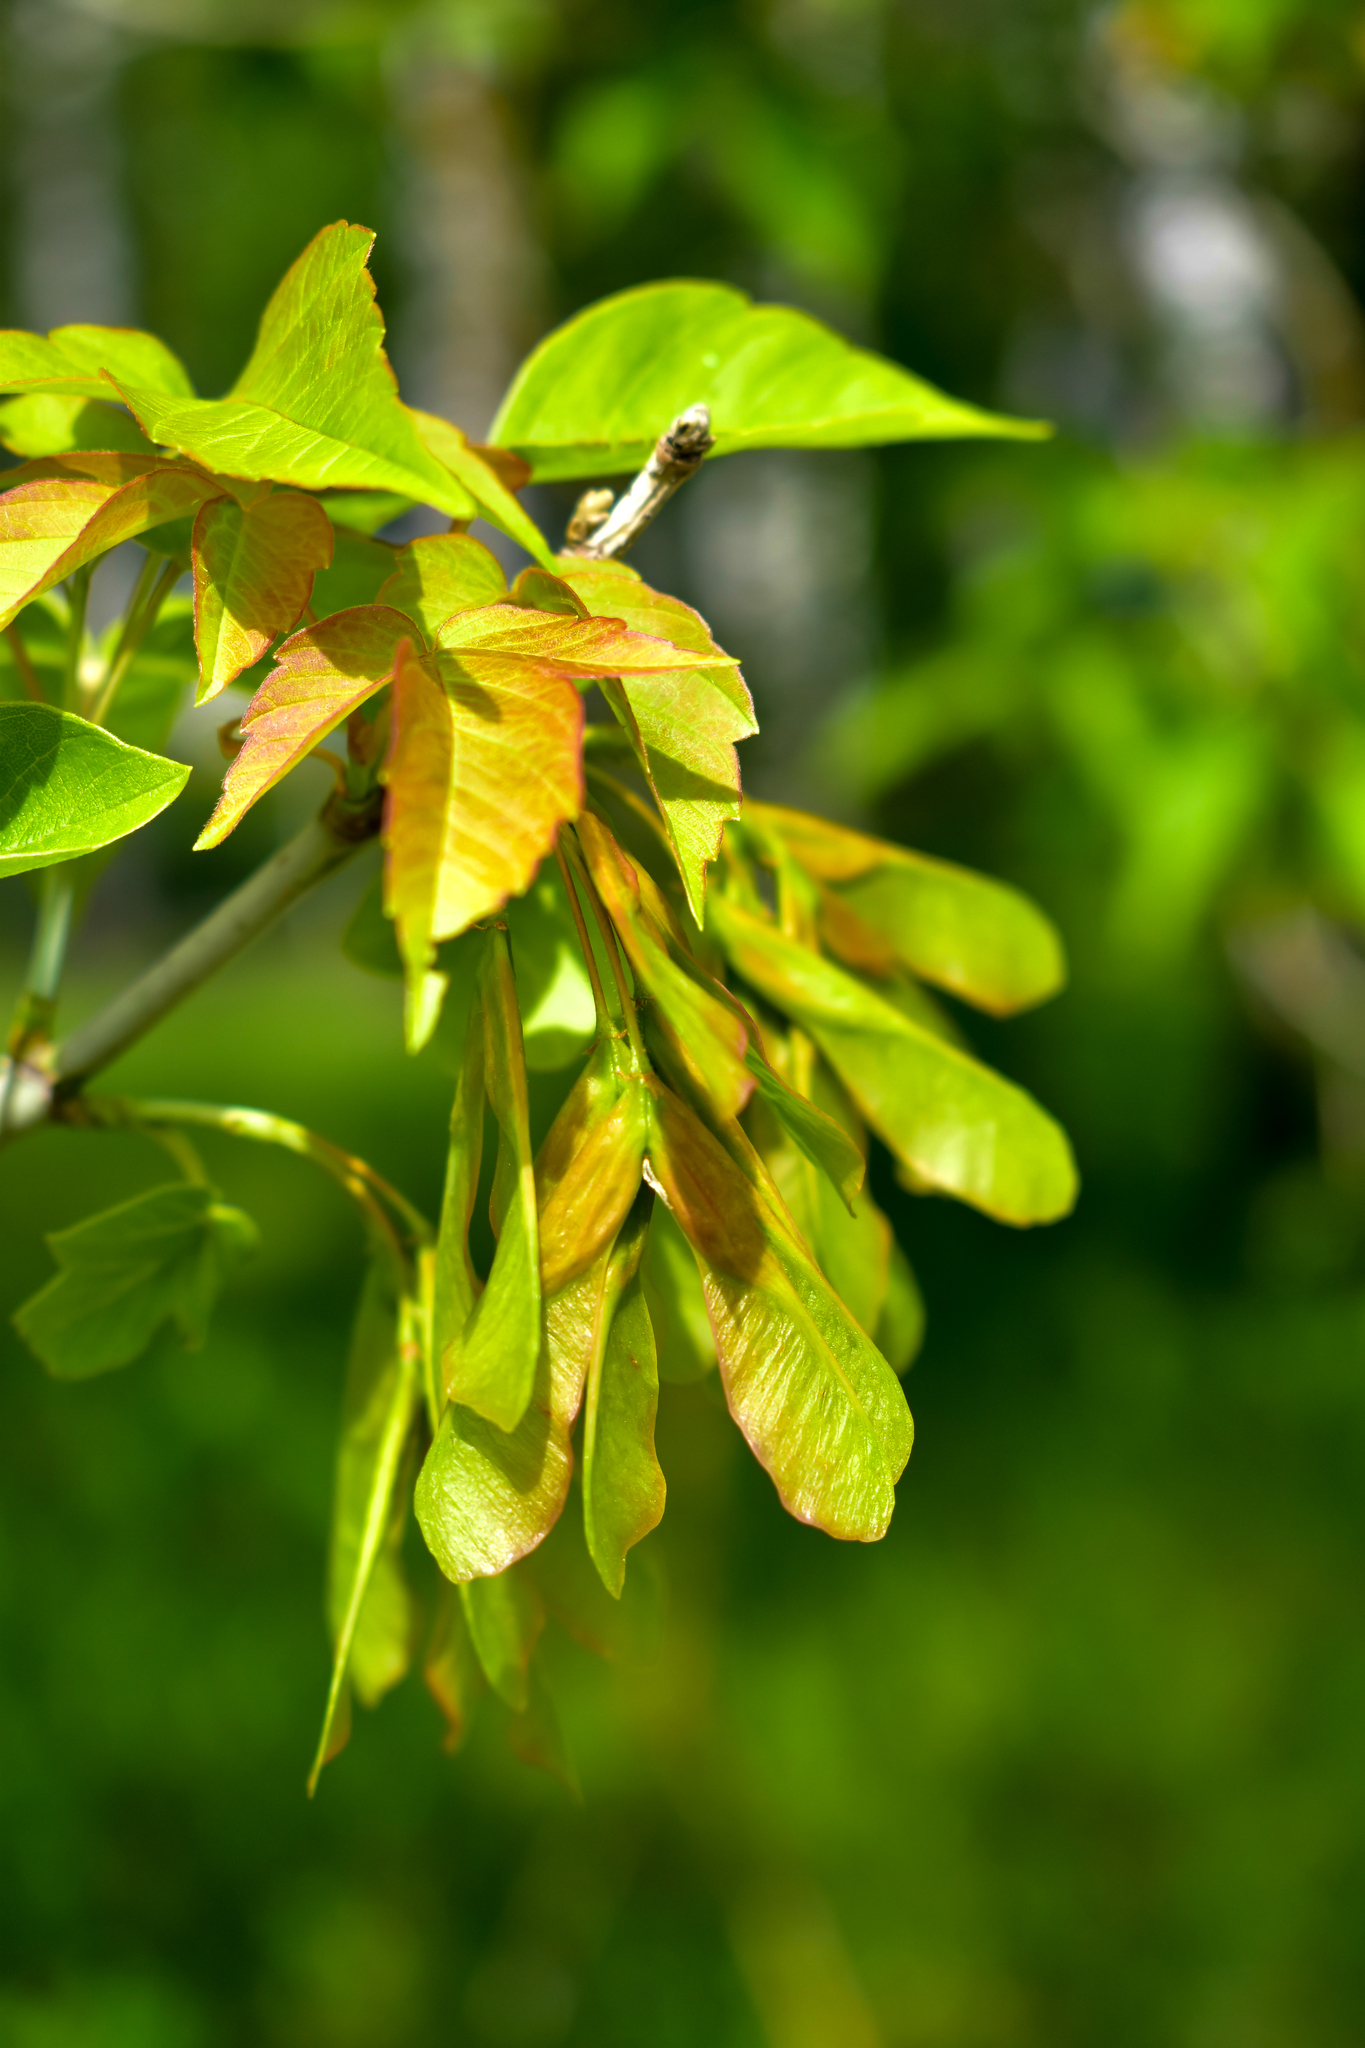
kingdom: Plantae
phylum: Tracheophyta
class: Magnoliopsida
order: Sapindales
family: Sapindaceae
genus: Acer
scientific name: Acer negundo
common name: Ashleaf maple
